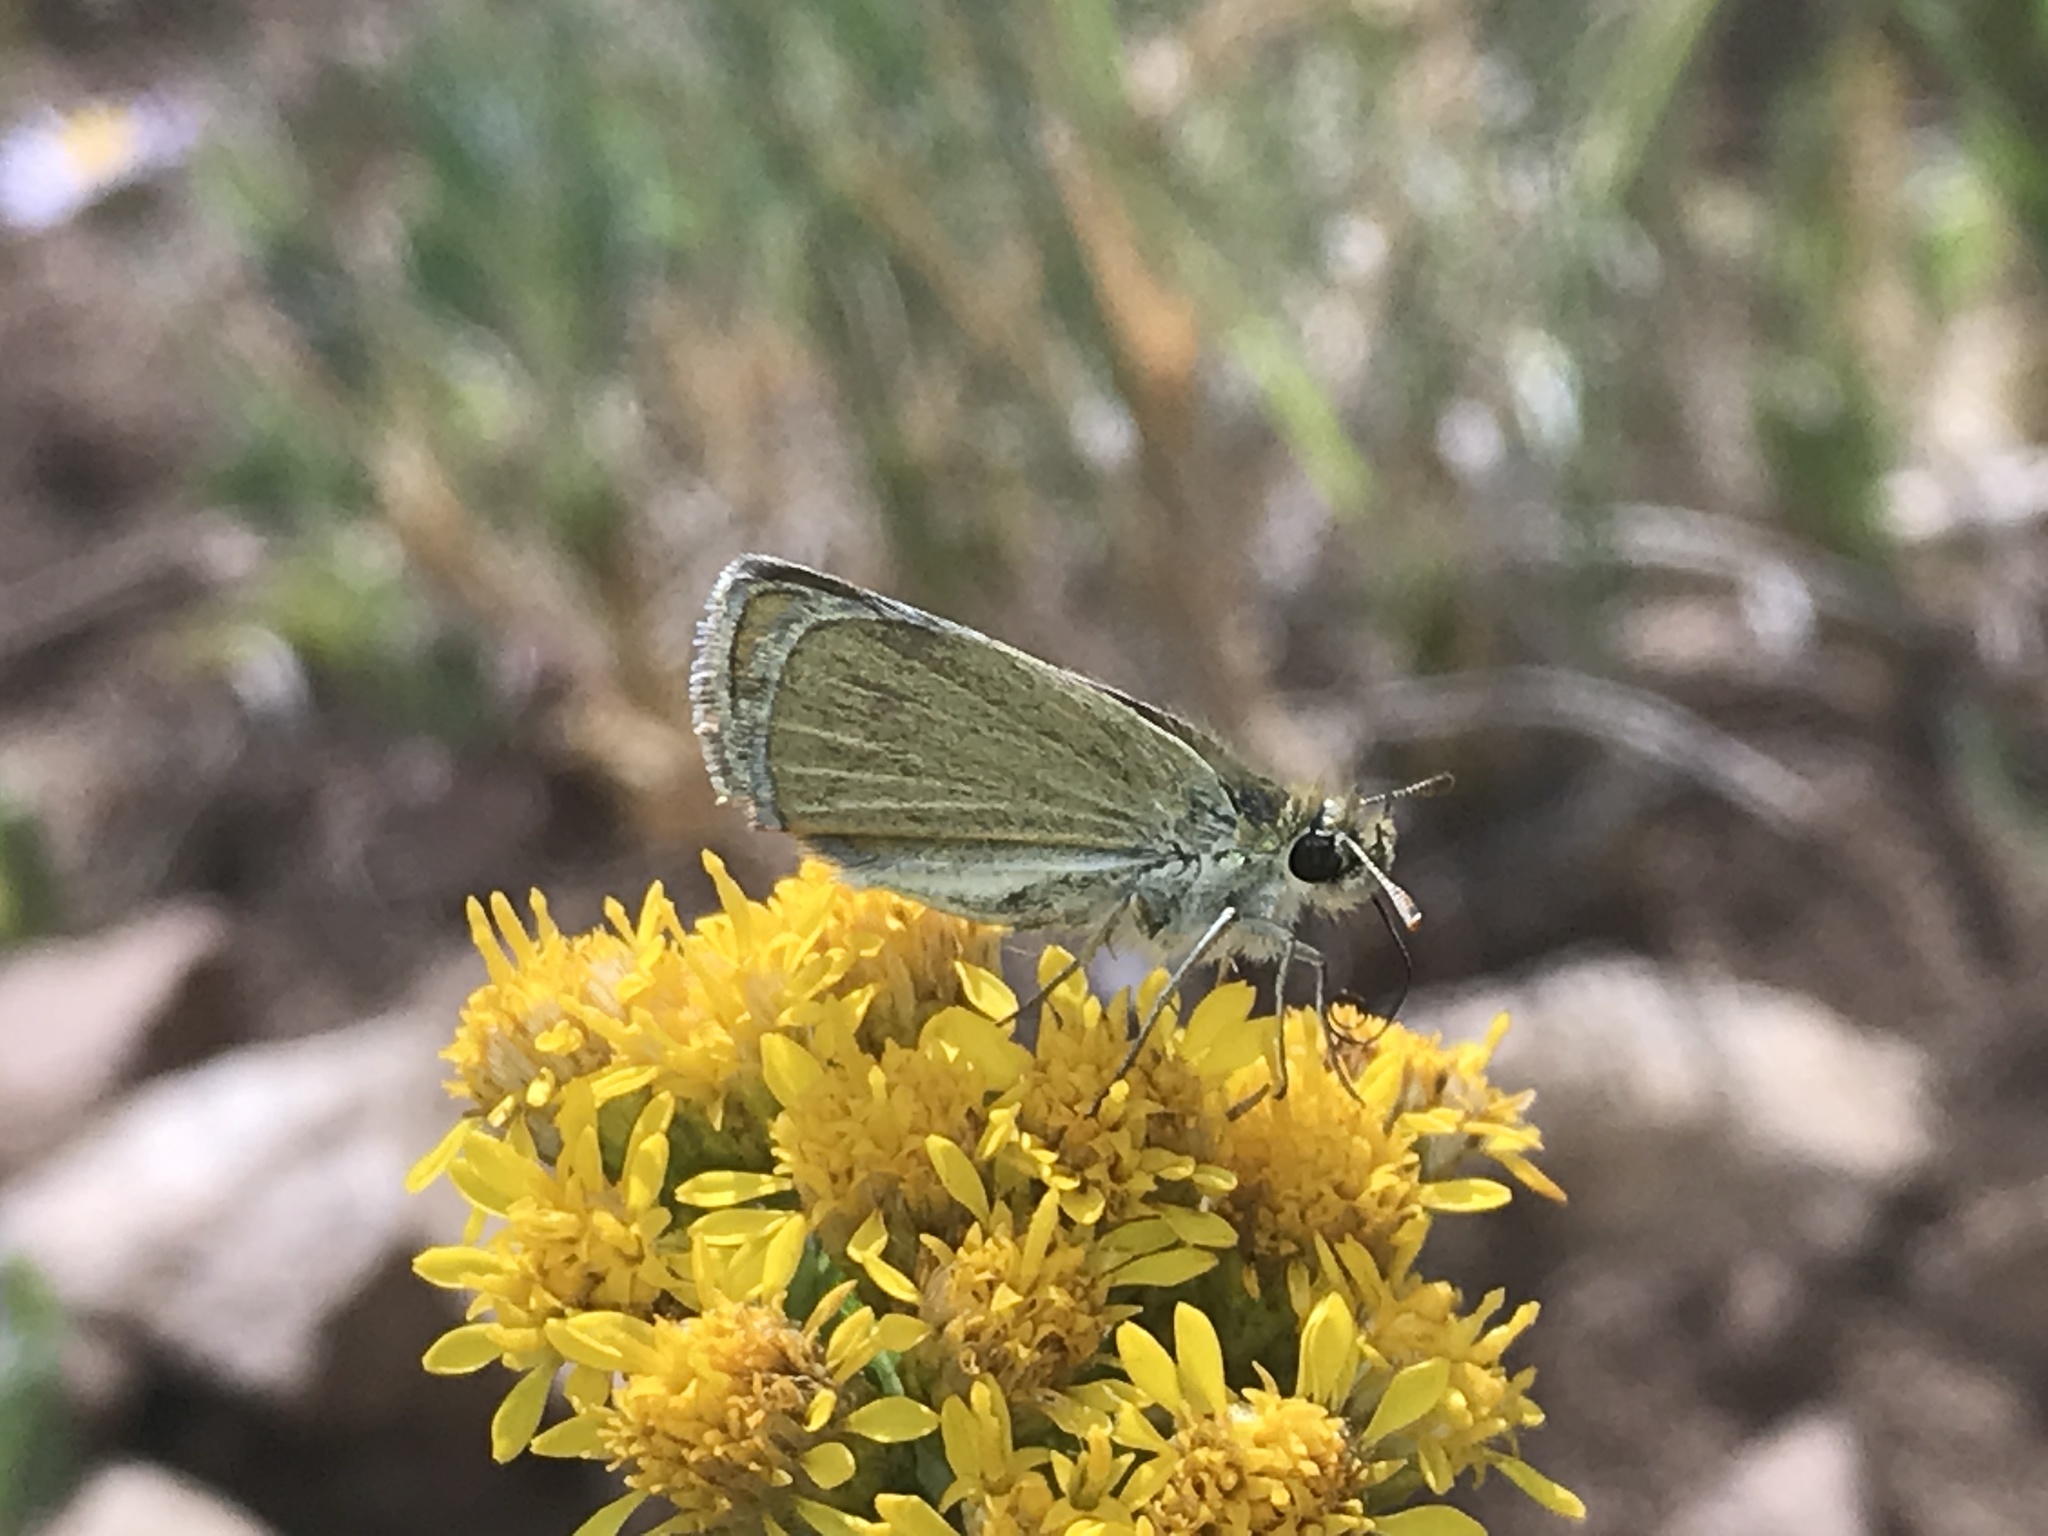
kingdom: Animalia
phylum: Arthropoda
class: Insecta
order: Lepidoptera
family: Hesperiidae
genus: Oarisma
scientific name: Oarisma garita
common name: Garita skipperling
